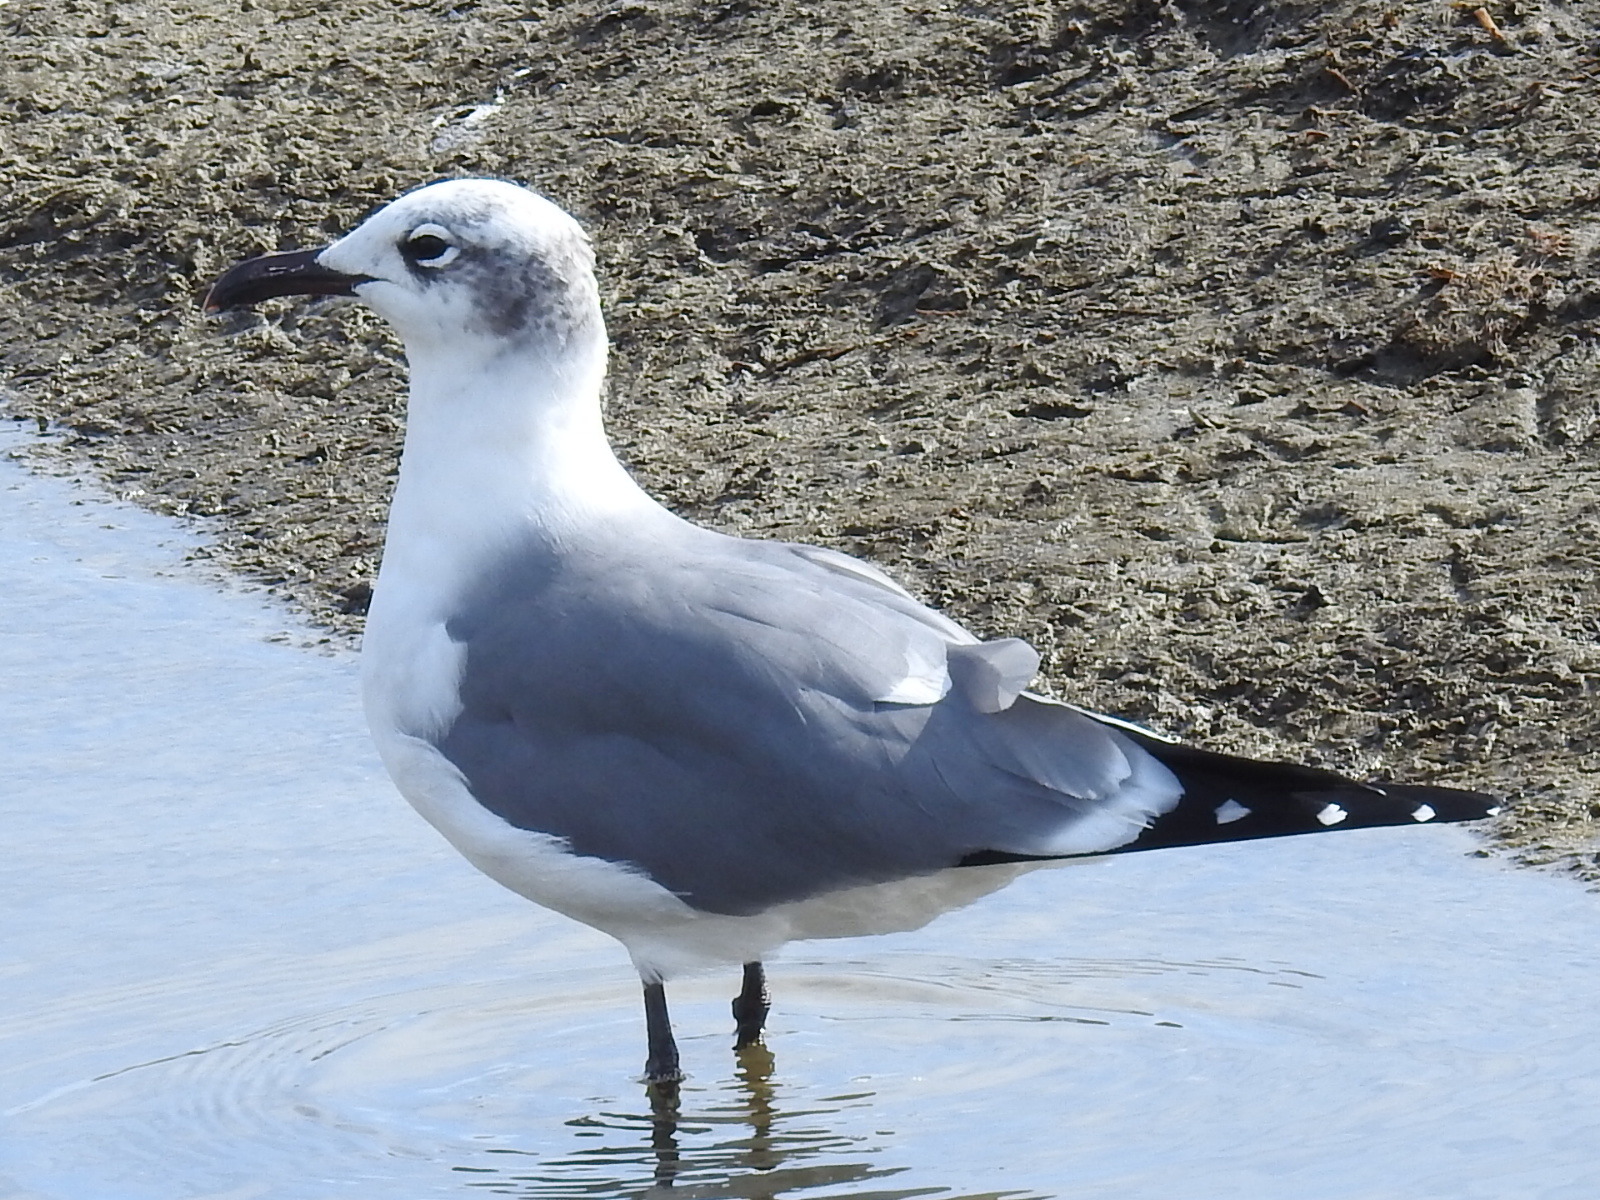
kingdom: Animalia
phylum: Chordata
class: Aves
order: Charadriiformes
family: Laridae
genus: Leucophaeus
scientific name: Leucophaeus atricilla
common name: Laughing gull
